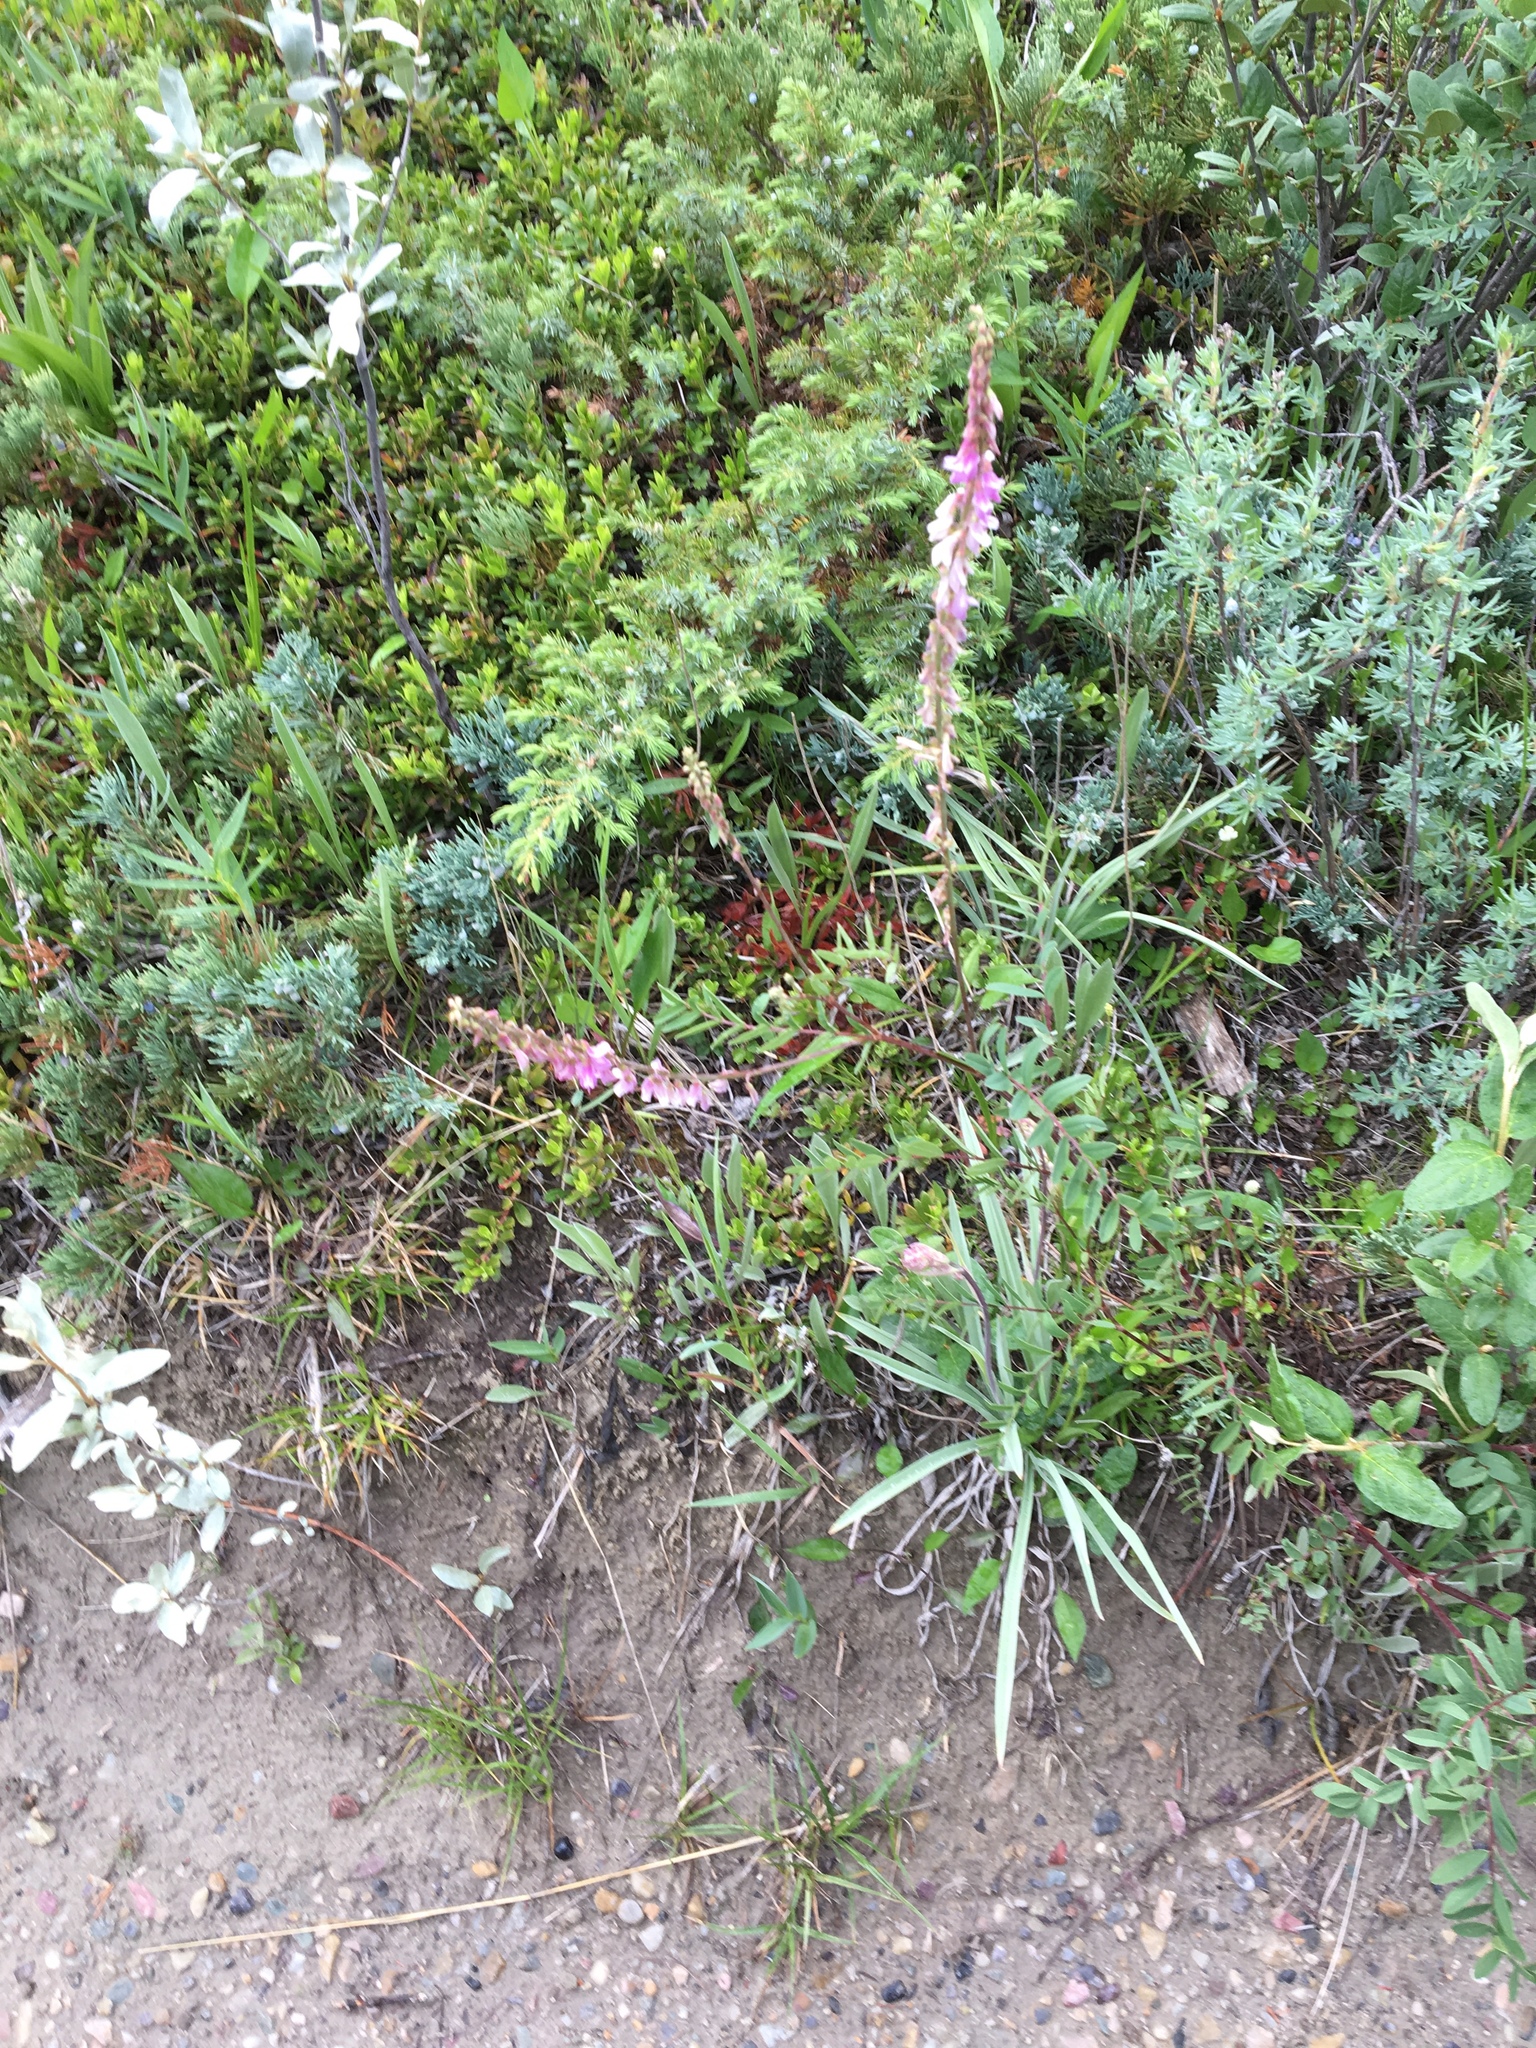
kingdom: Plantae
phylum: Tracheophyta
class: Magnoliopsida
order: Fabales
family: Fabaceae
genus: Hedysarum
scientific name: Hedysarum alpinum
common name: Alpine sweet-vetch
